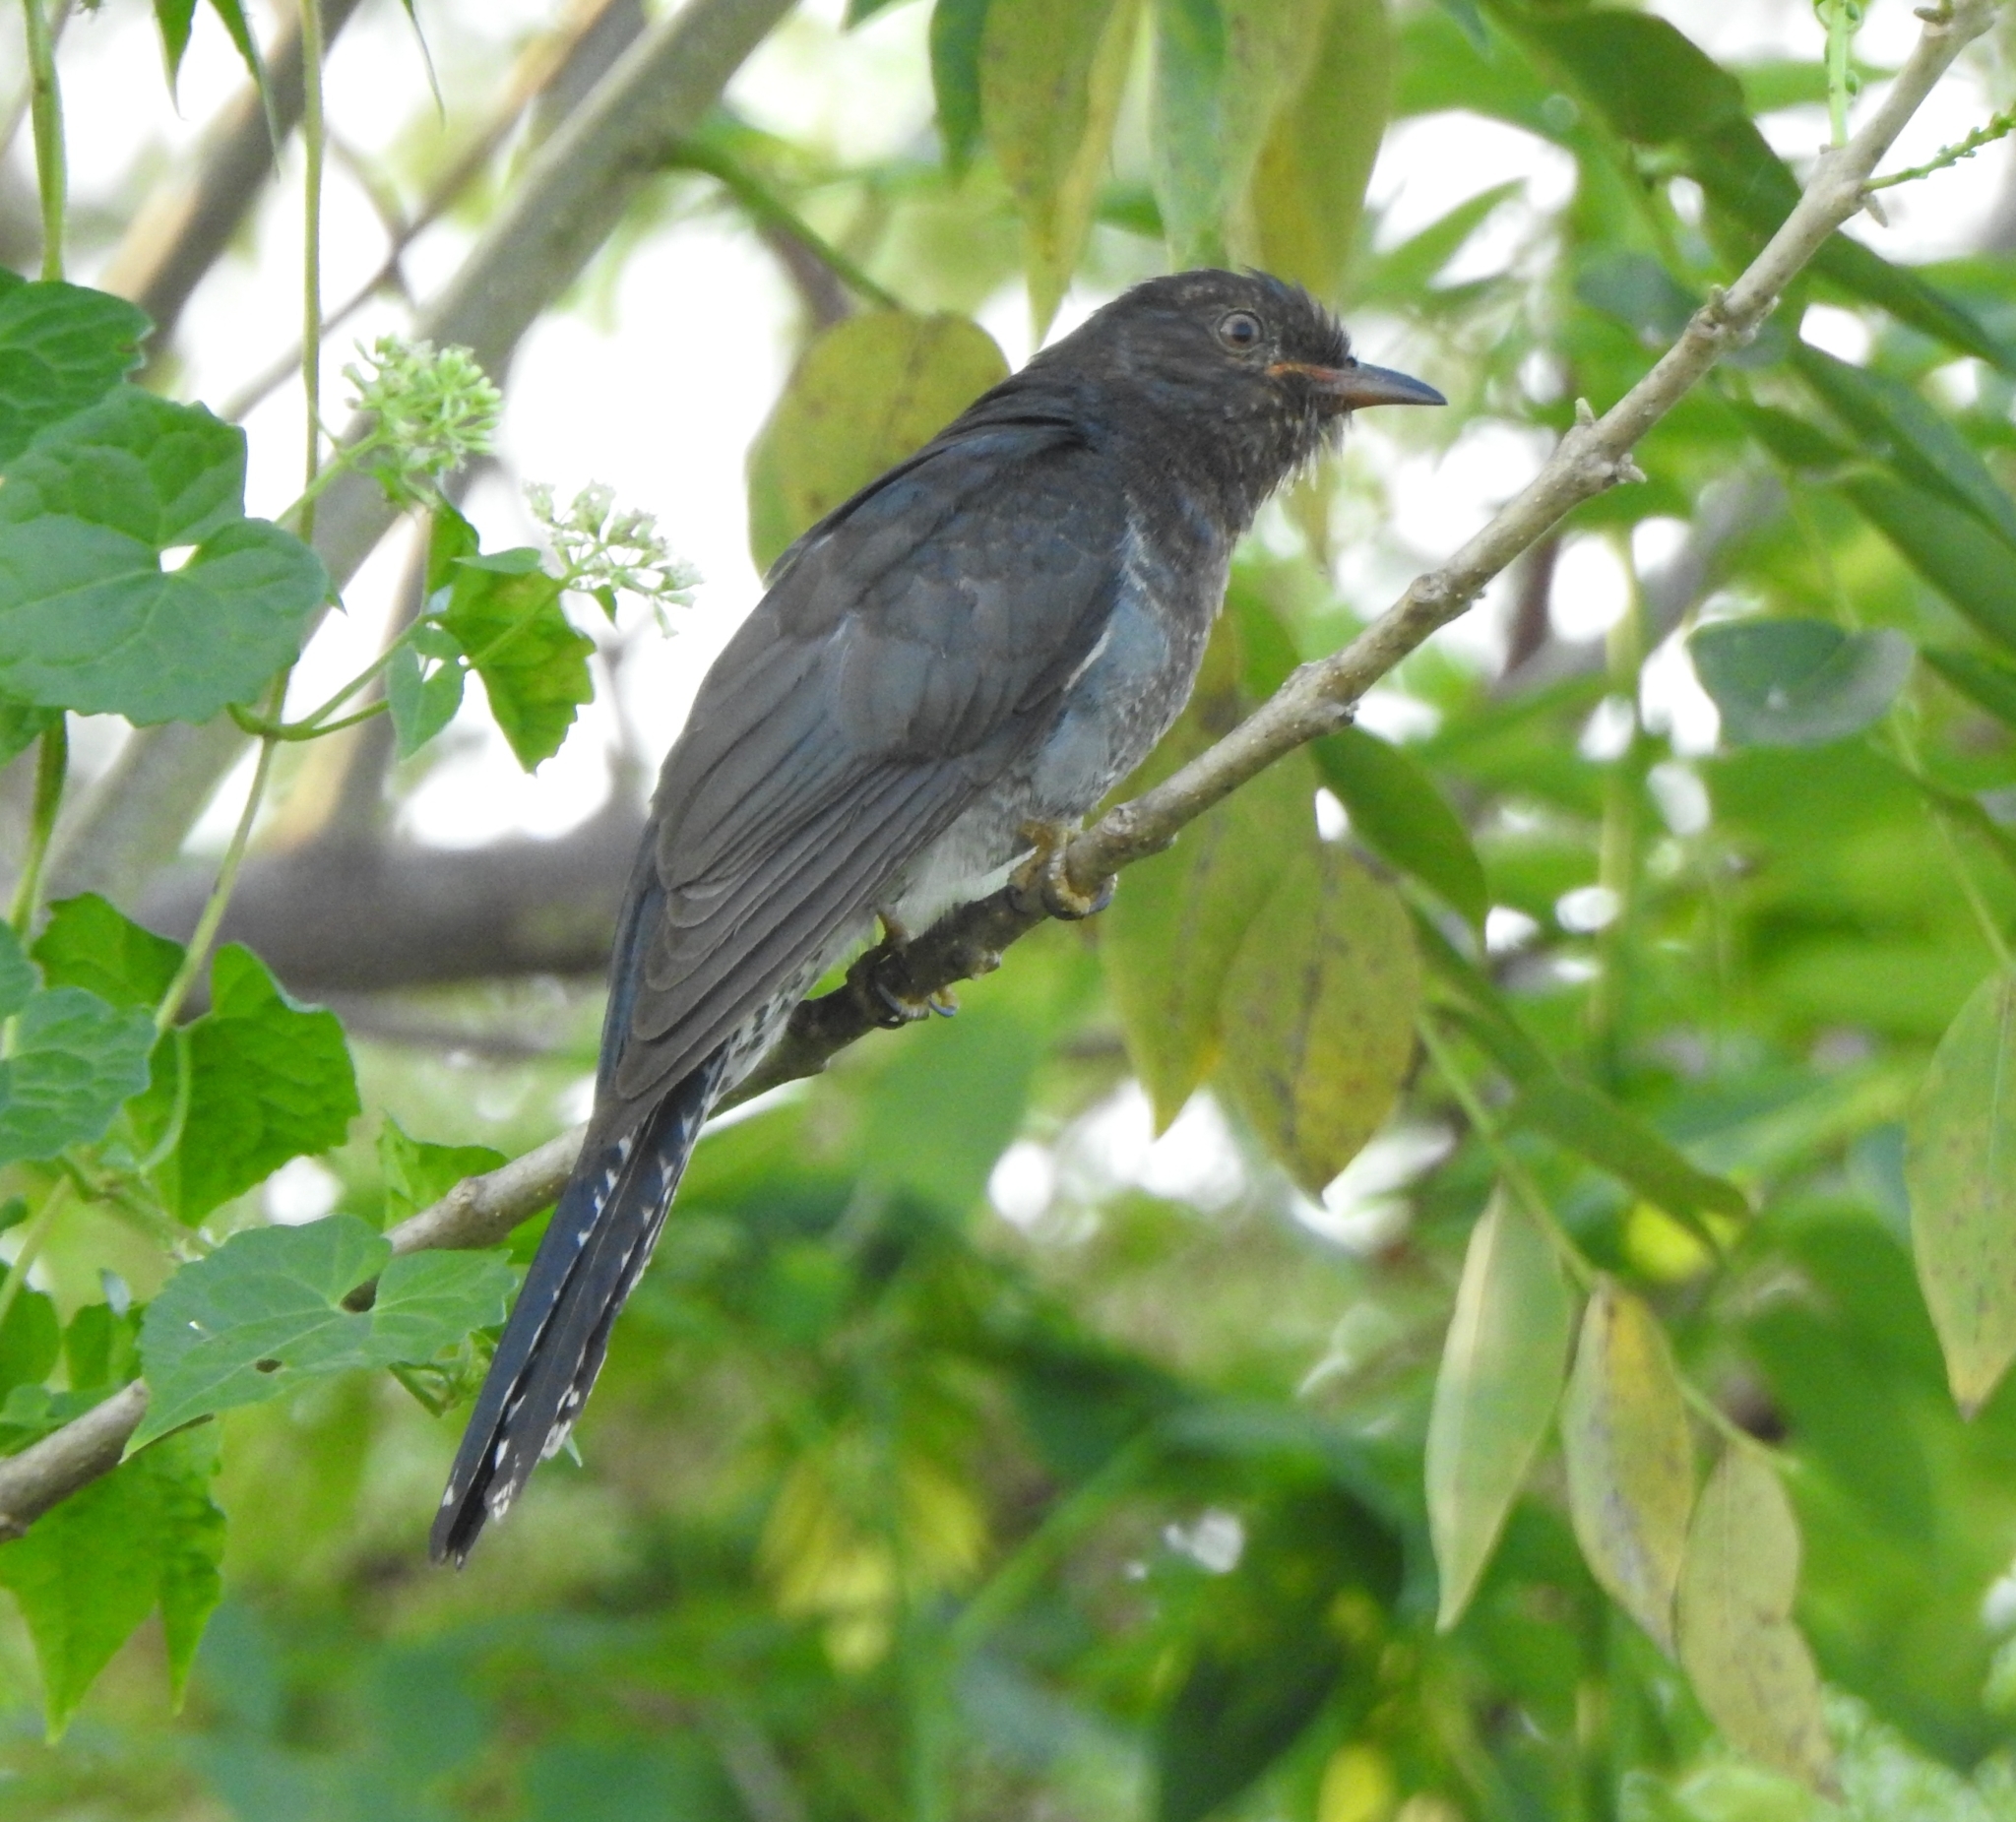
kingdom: Animalia
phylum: Chordata
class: Aves
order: Cuculiformes
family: Cuculidae
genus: Cacomantis
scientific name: Cacomantis passerinus
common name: Grey-bellied cuckoo
